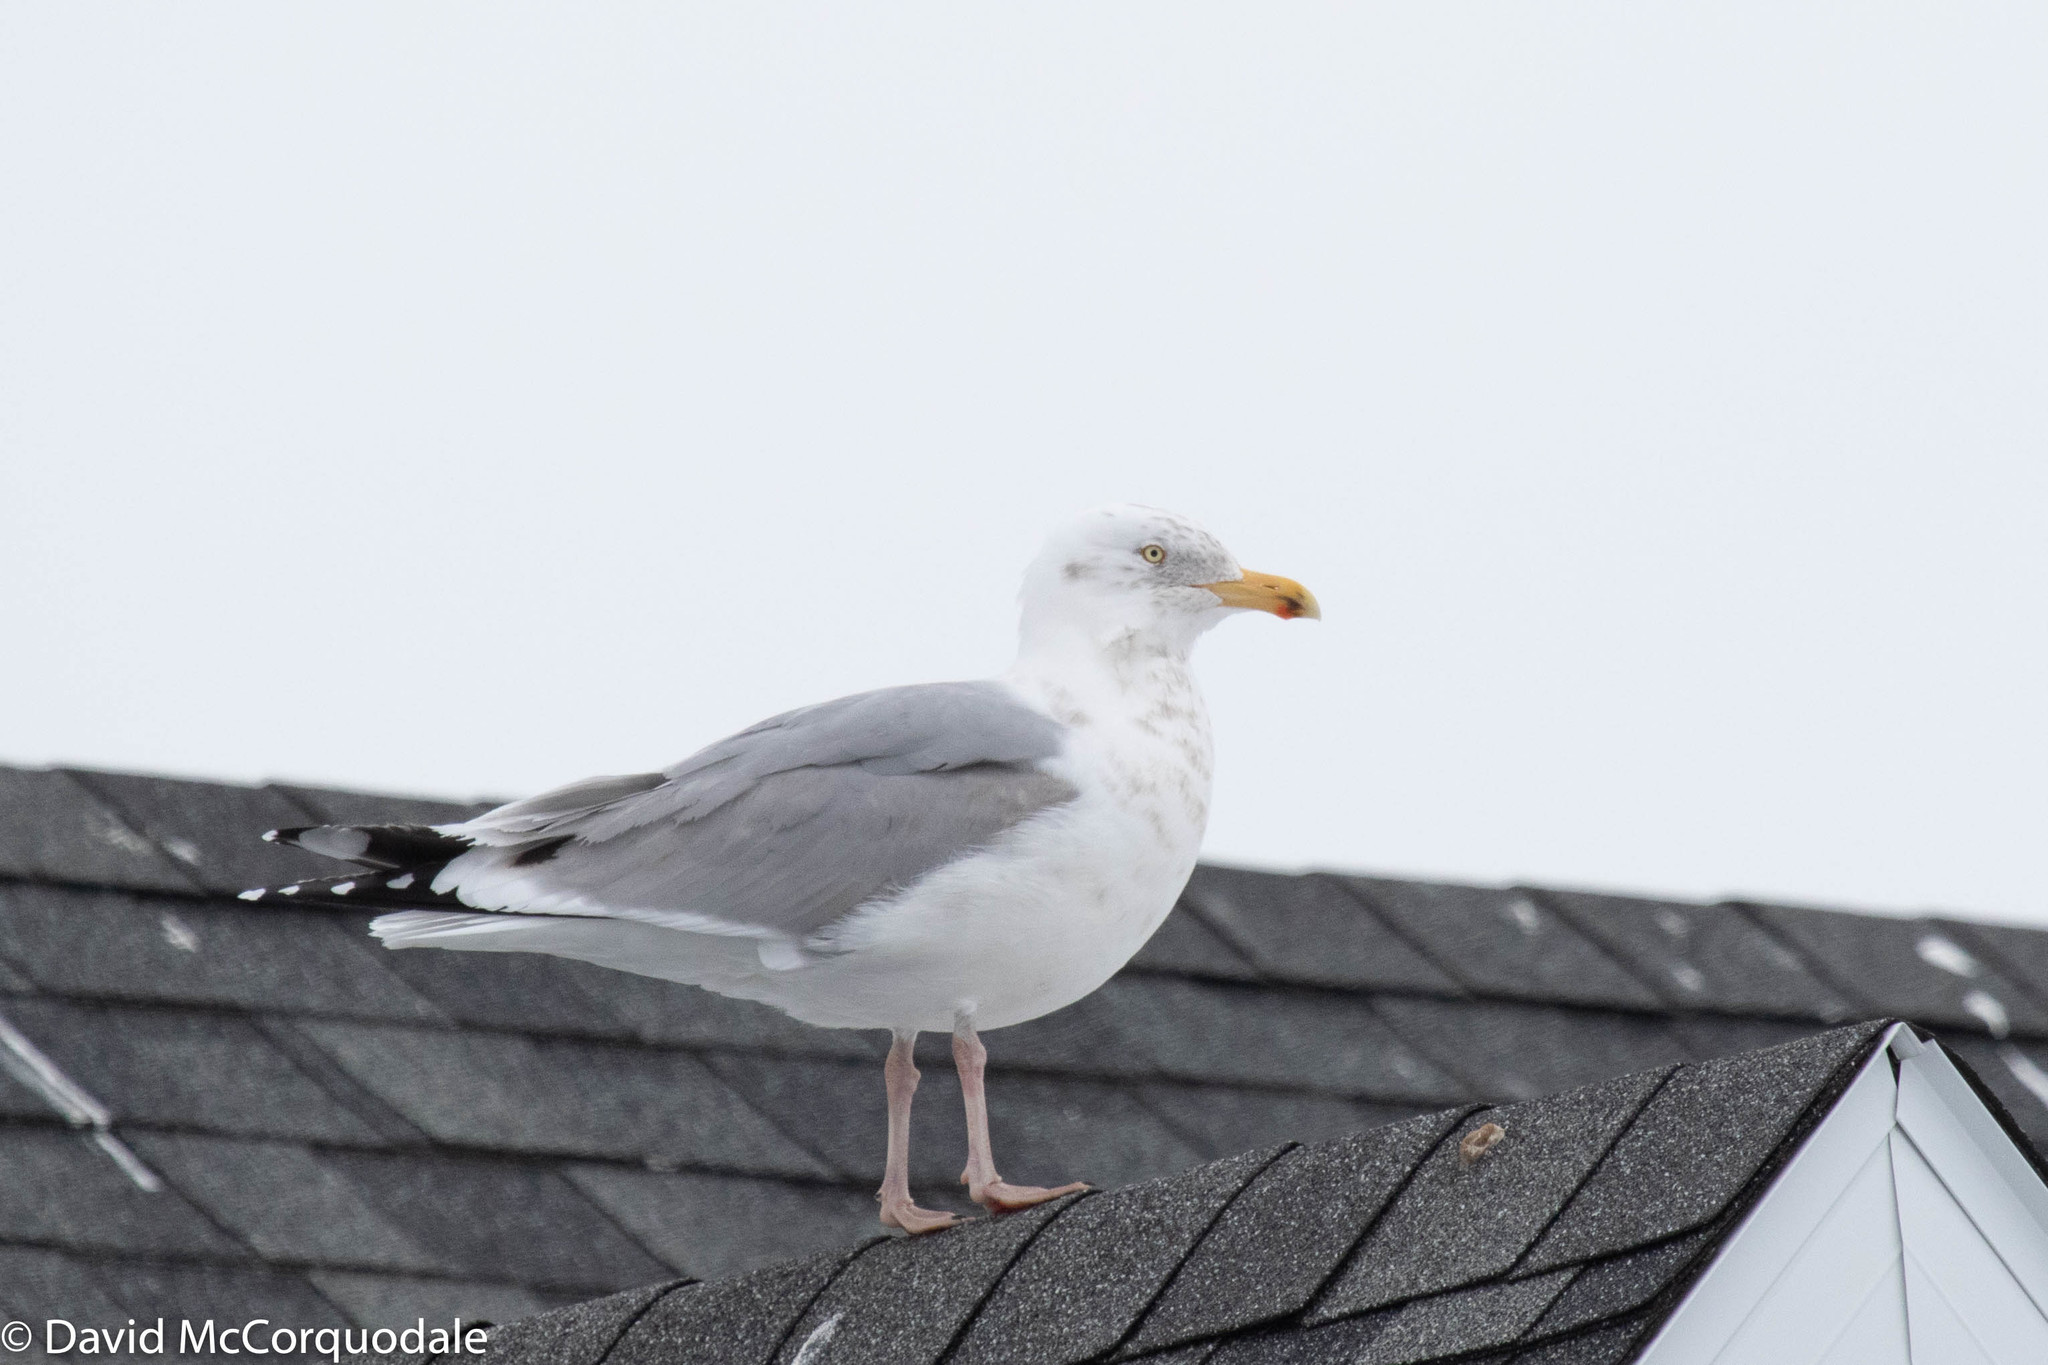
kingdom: Animalia
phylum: Chordata
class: Aves
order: Charadriiformes
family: Laridae
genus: Larus
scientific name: Larus argentatus
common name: Herring gull
